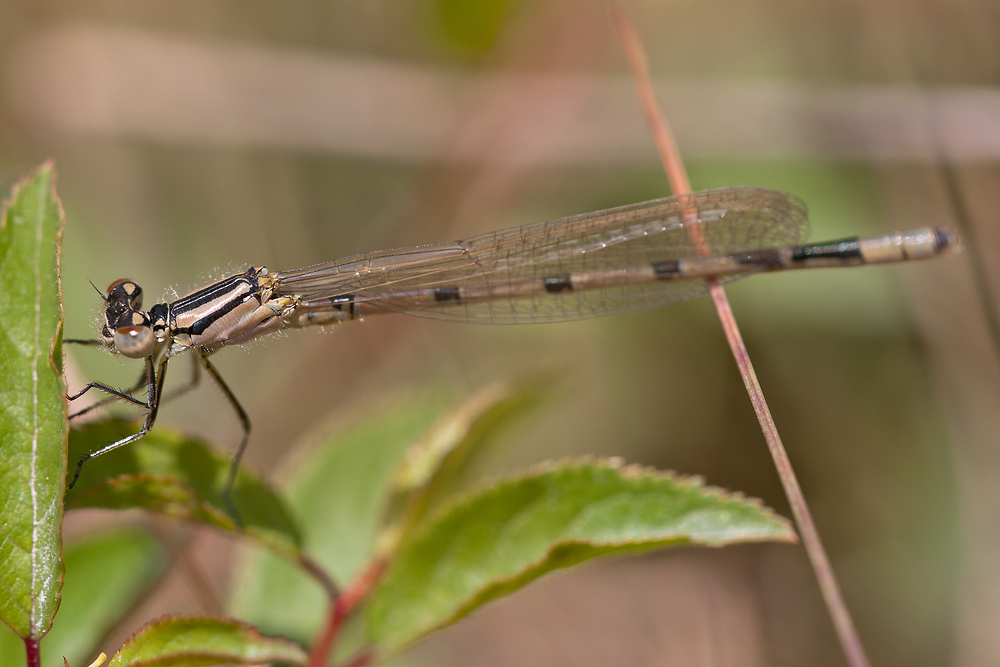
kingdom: Animalia
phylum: Arthropoda
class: Insecta
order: Odonata
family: Coenagrionidae
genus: Enallagma
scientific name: Enallagma cyathigerum
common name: Common blue damselfly
